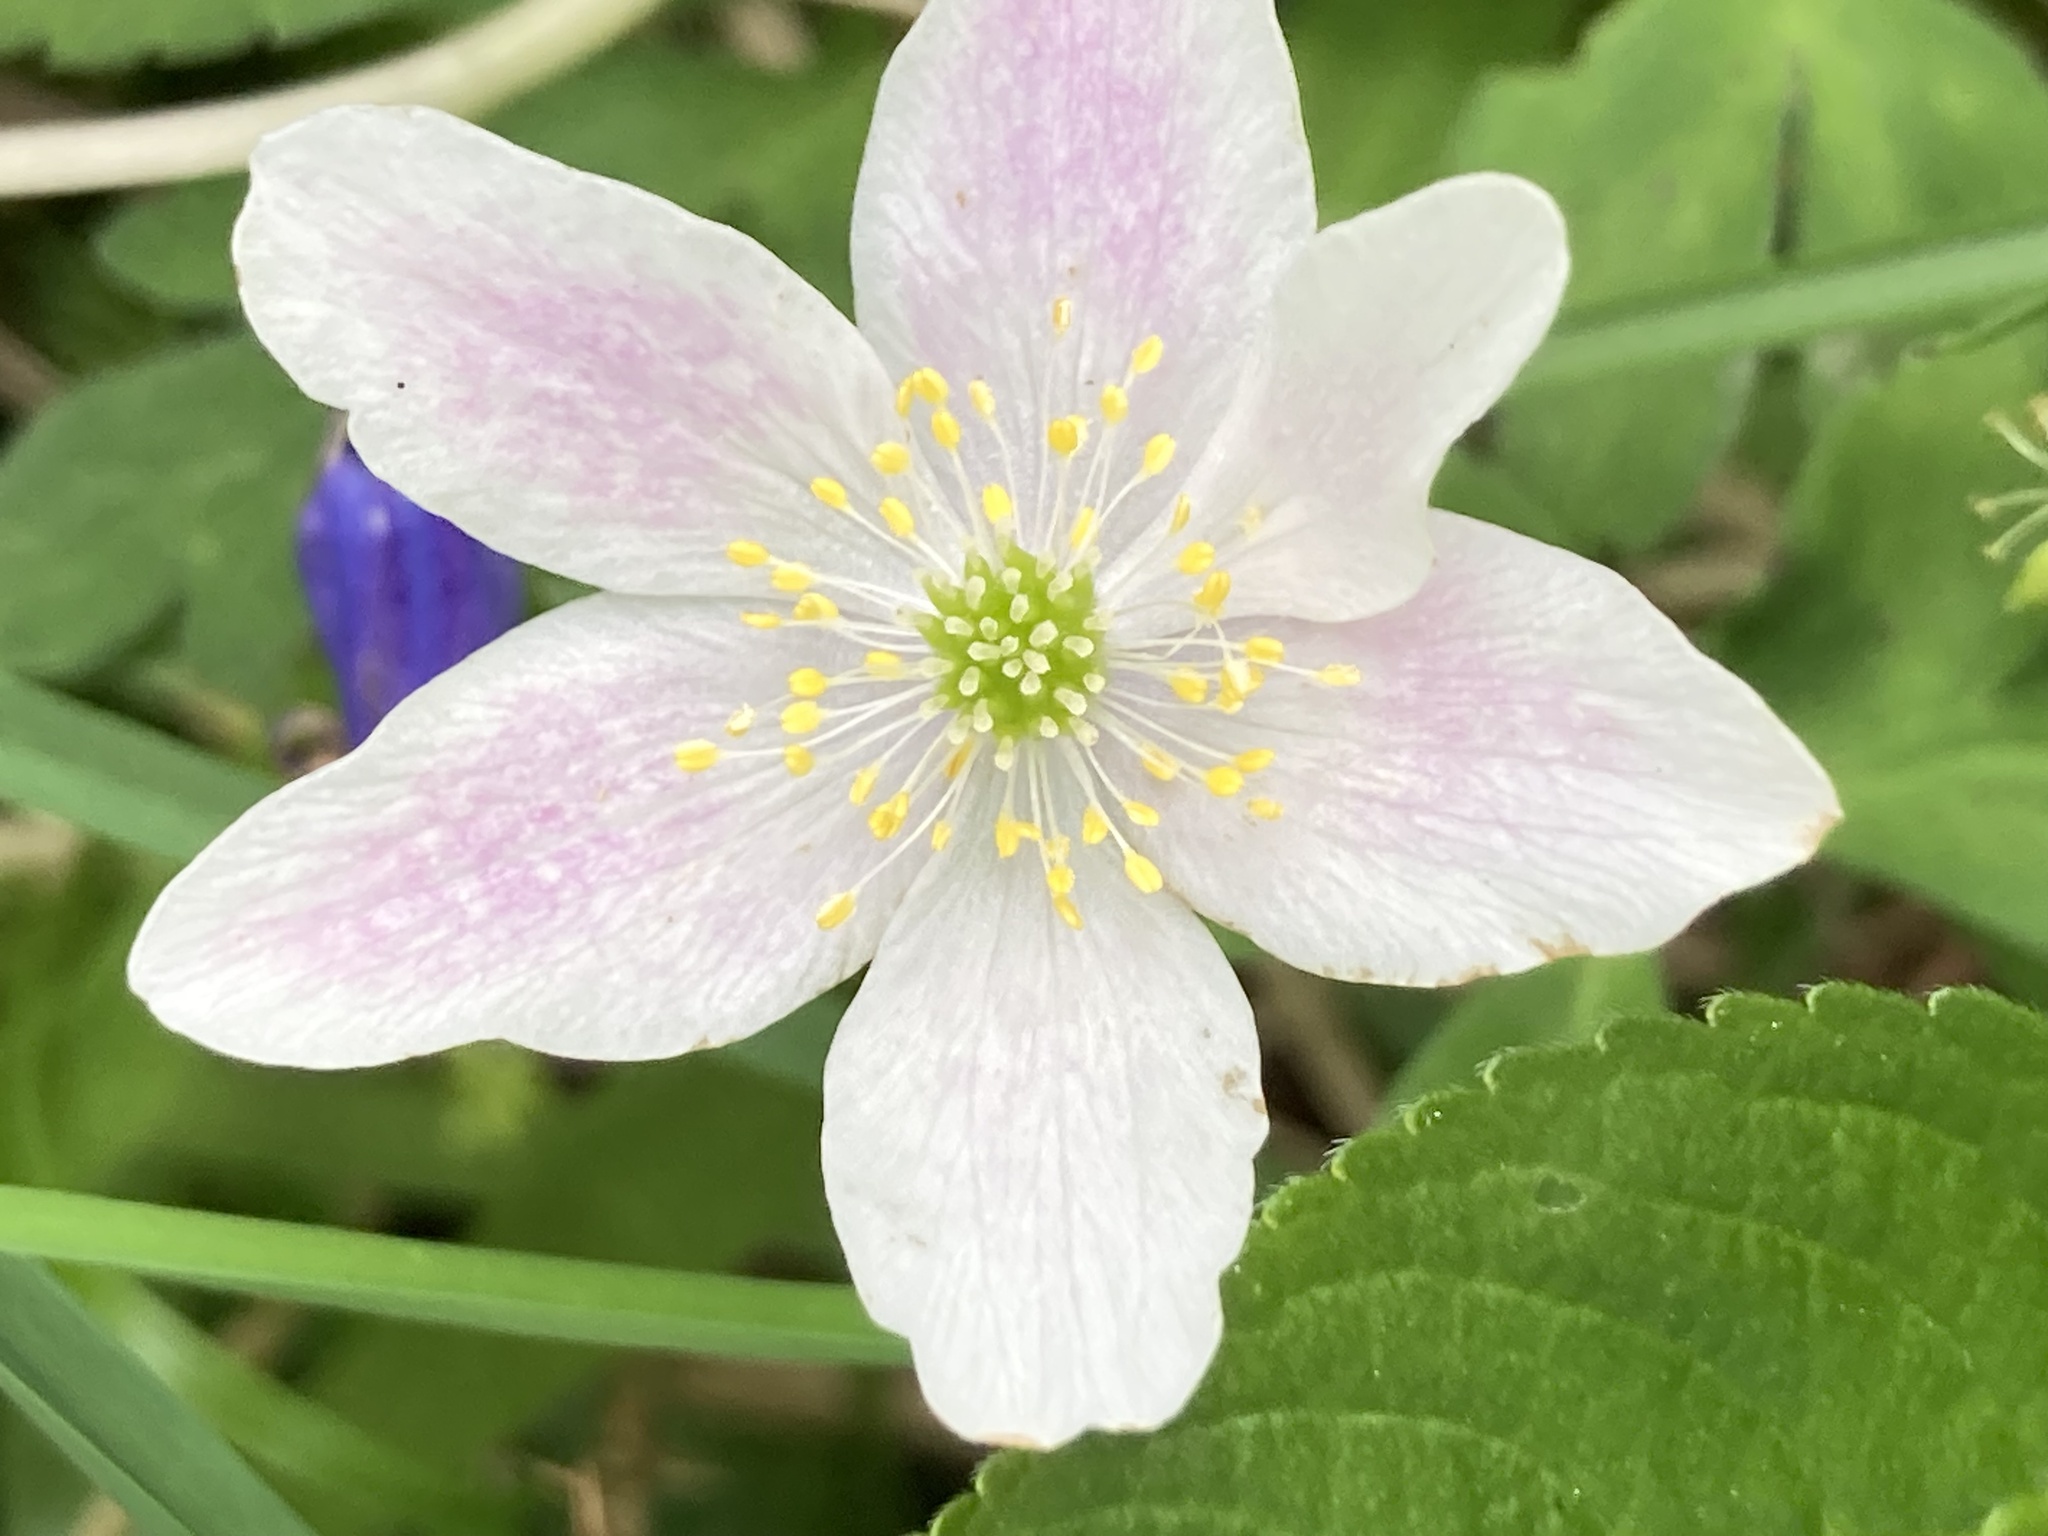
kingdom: Plantae
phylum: Tracheophyta
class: Magnoliopsida
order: Ranunculales
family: Ranunculaceae
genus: Anemone
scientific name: Anemone nemorosa
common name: Wood anemone
